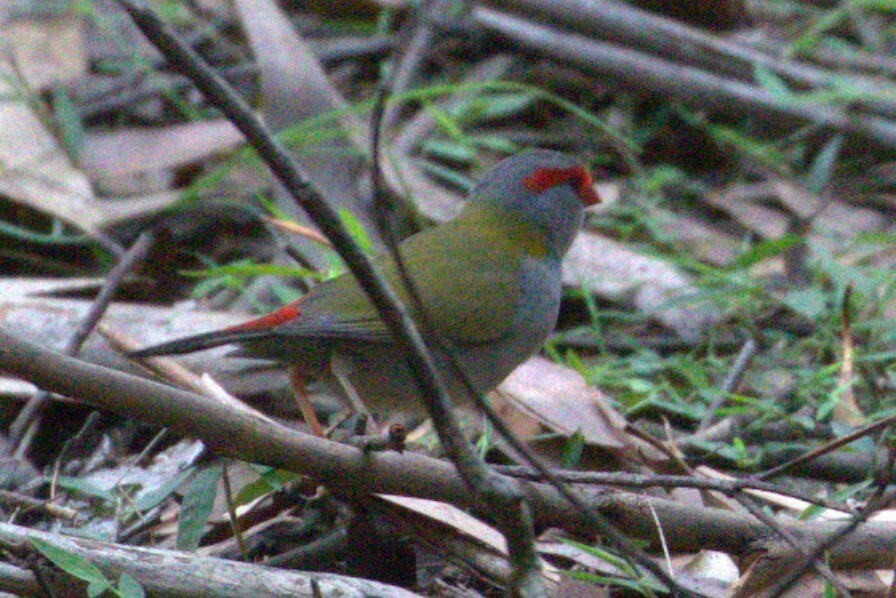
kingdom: Animalia
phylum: Chordata
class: Aves
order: Passeriformes
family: Estrildidae
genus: Neochmia
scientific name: Neochmia temporalis
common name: Red-browed finch
